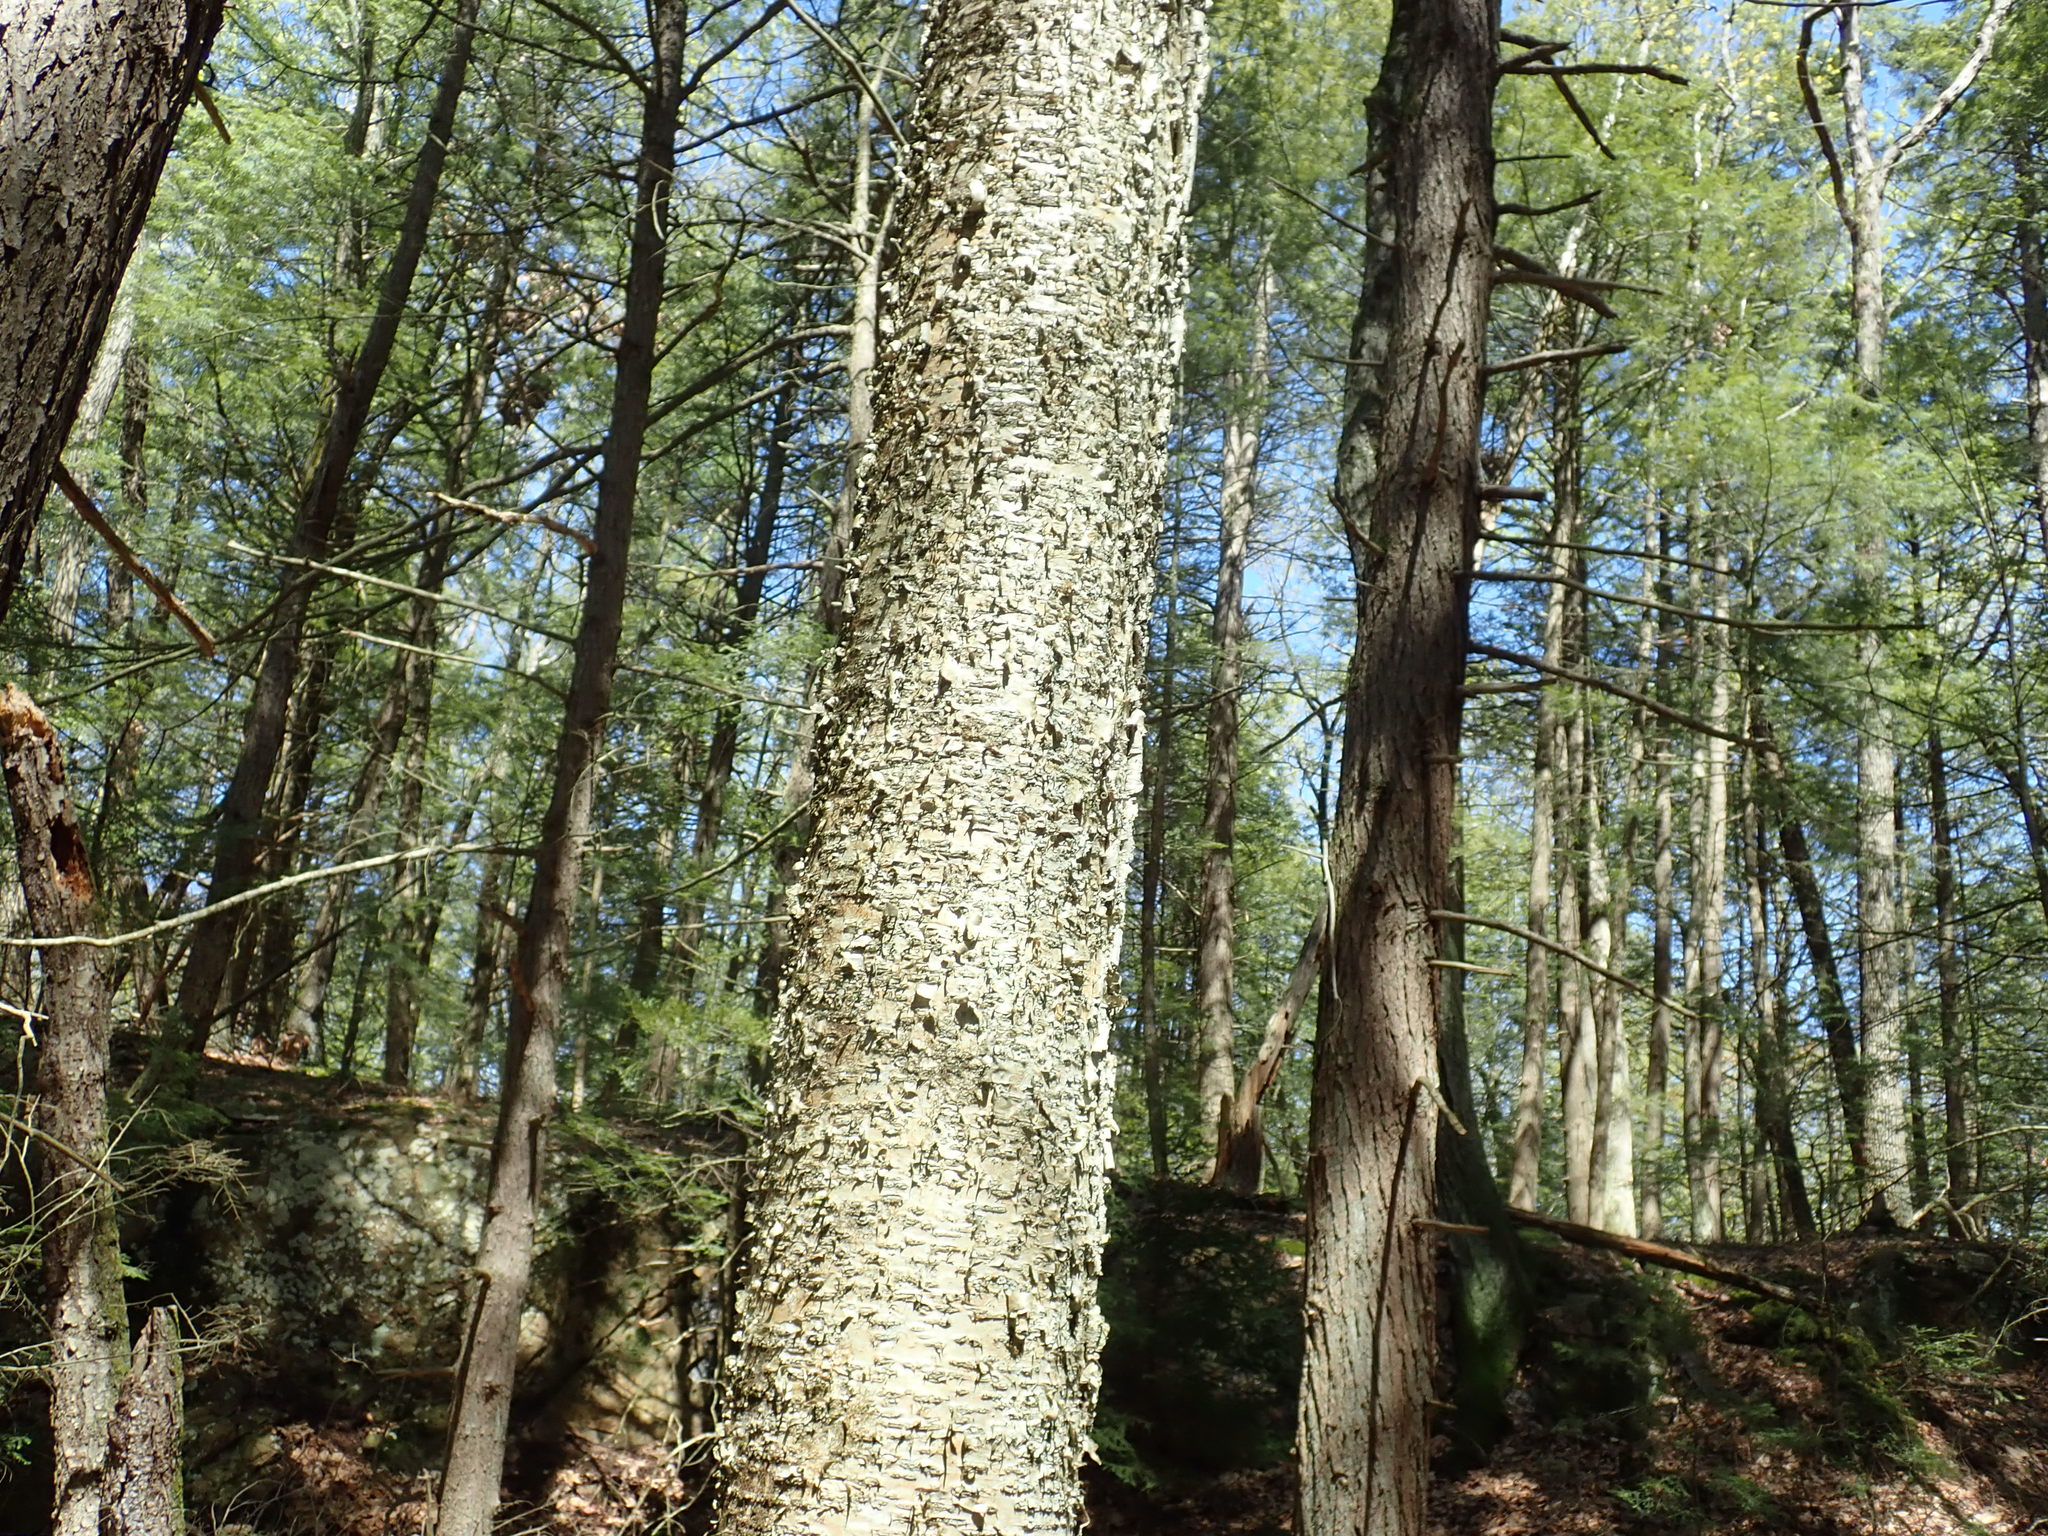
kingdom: Plantae
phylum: Tracheophyta
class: Magnoliopsida
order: Fagales
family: Betulaceae
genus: Betula
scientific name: Betula alleghaniensis
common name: Yellow birch
